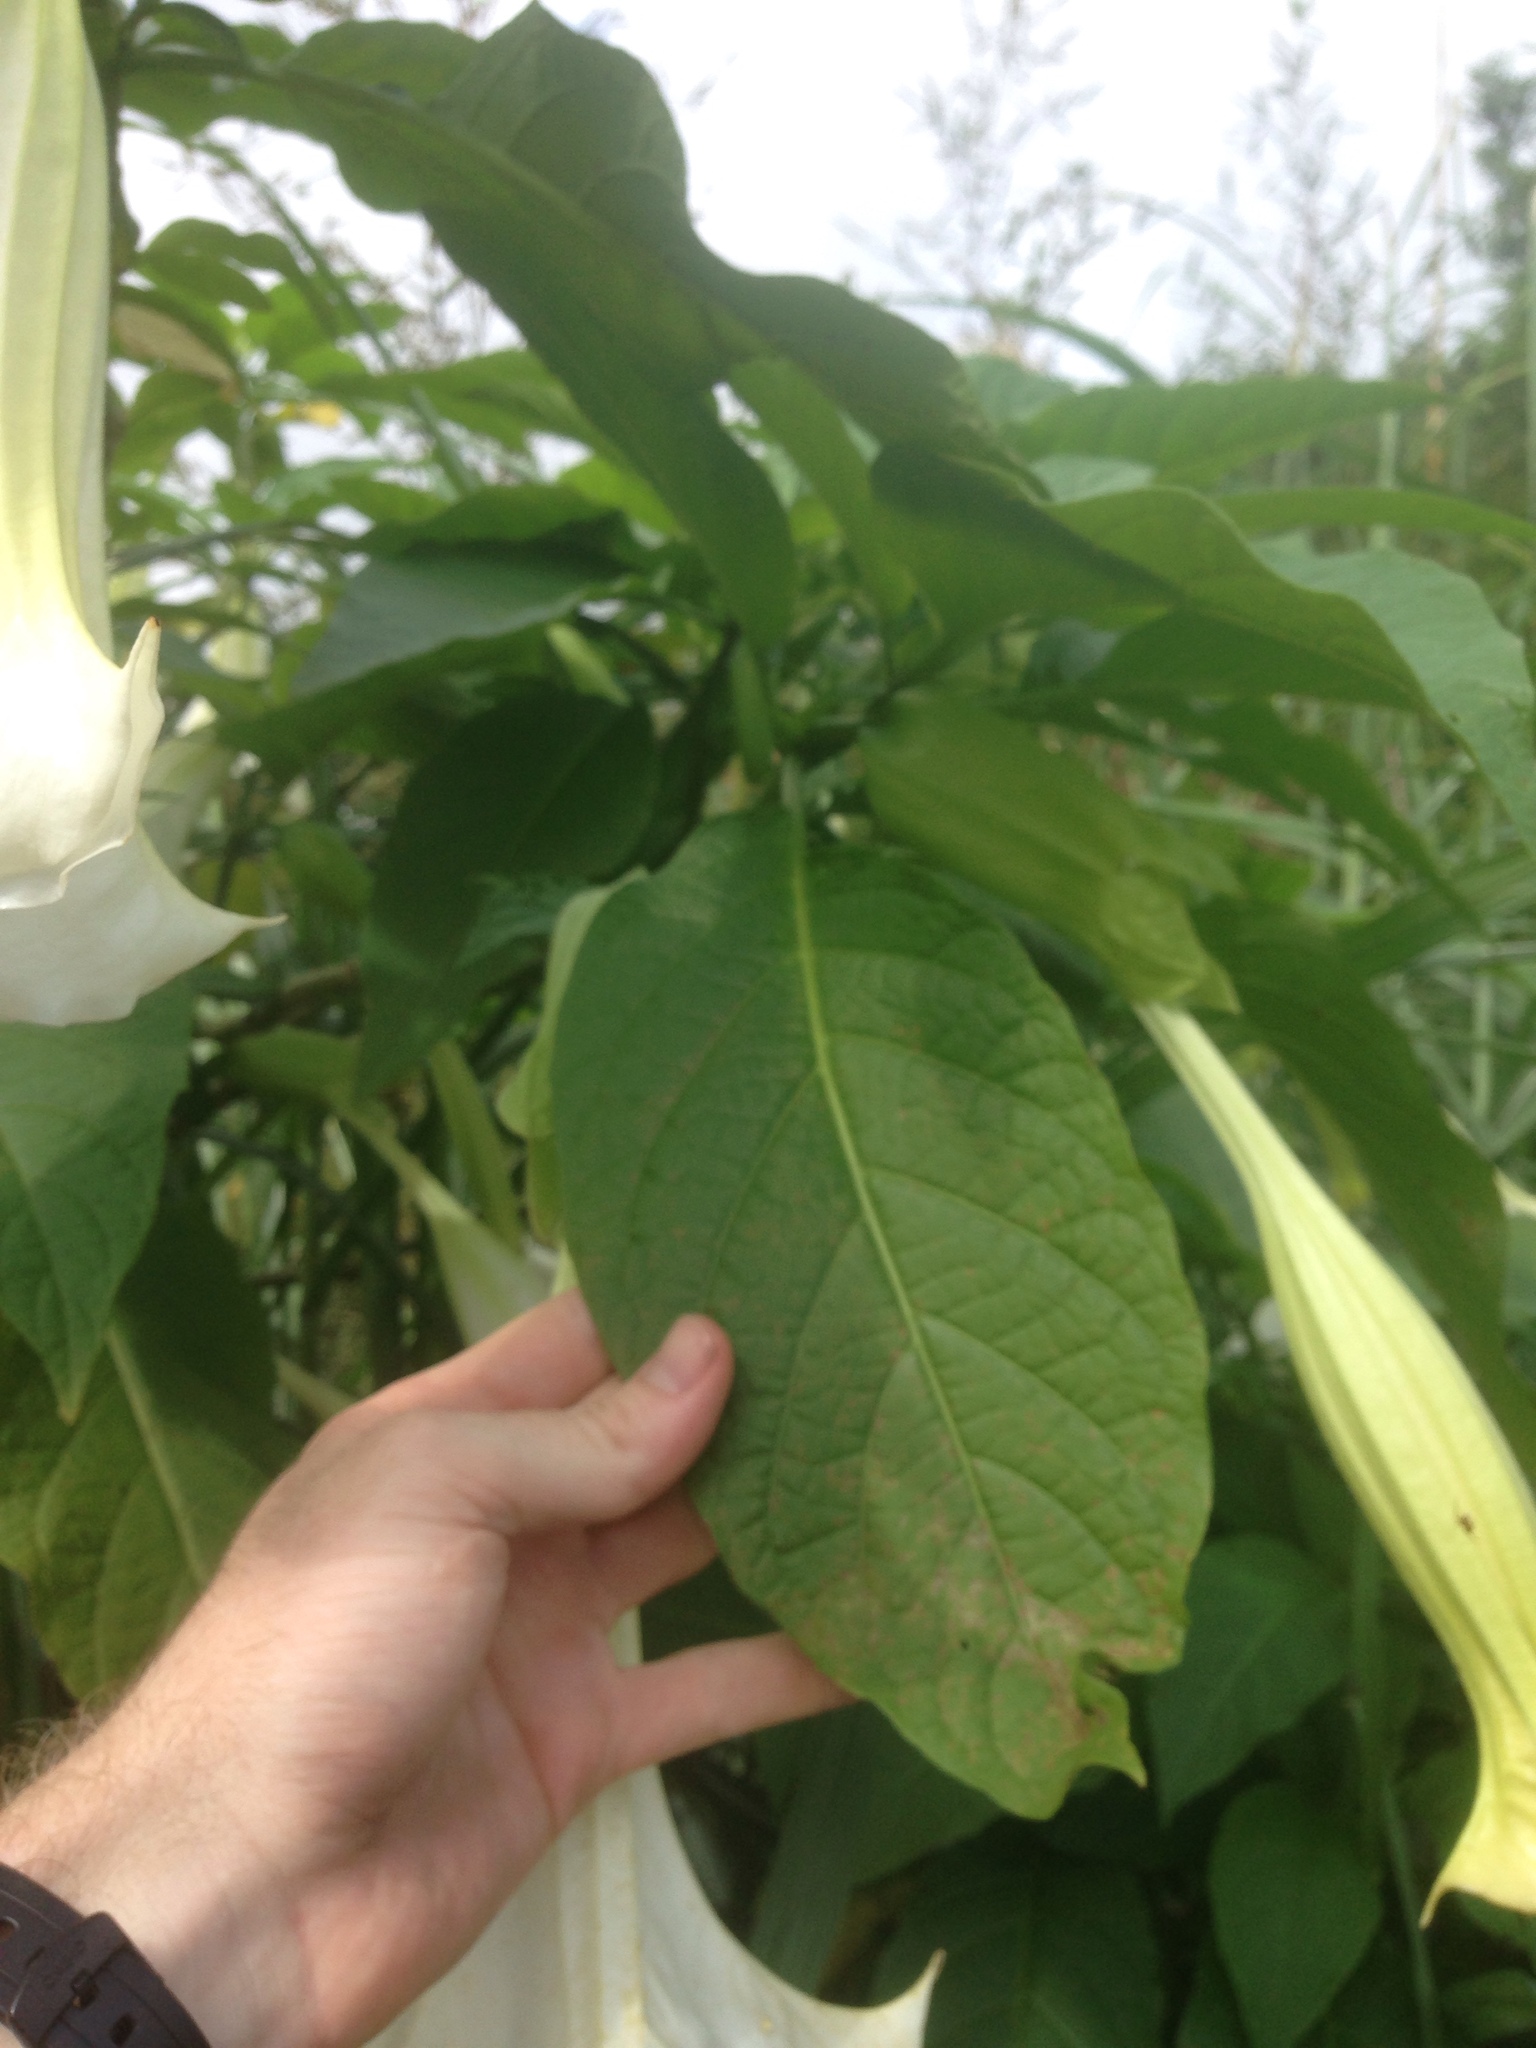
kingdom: Plantae
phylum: Tracheophyta
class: Magnoliopsida
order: Solanales
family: Solanaceae
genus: Brugmansia
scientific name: Brugmansia suaveolens
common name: Angel's tears
